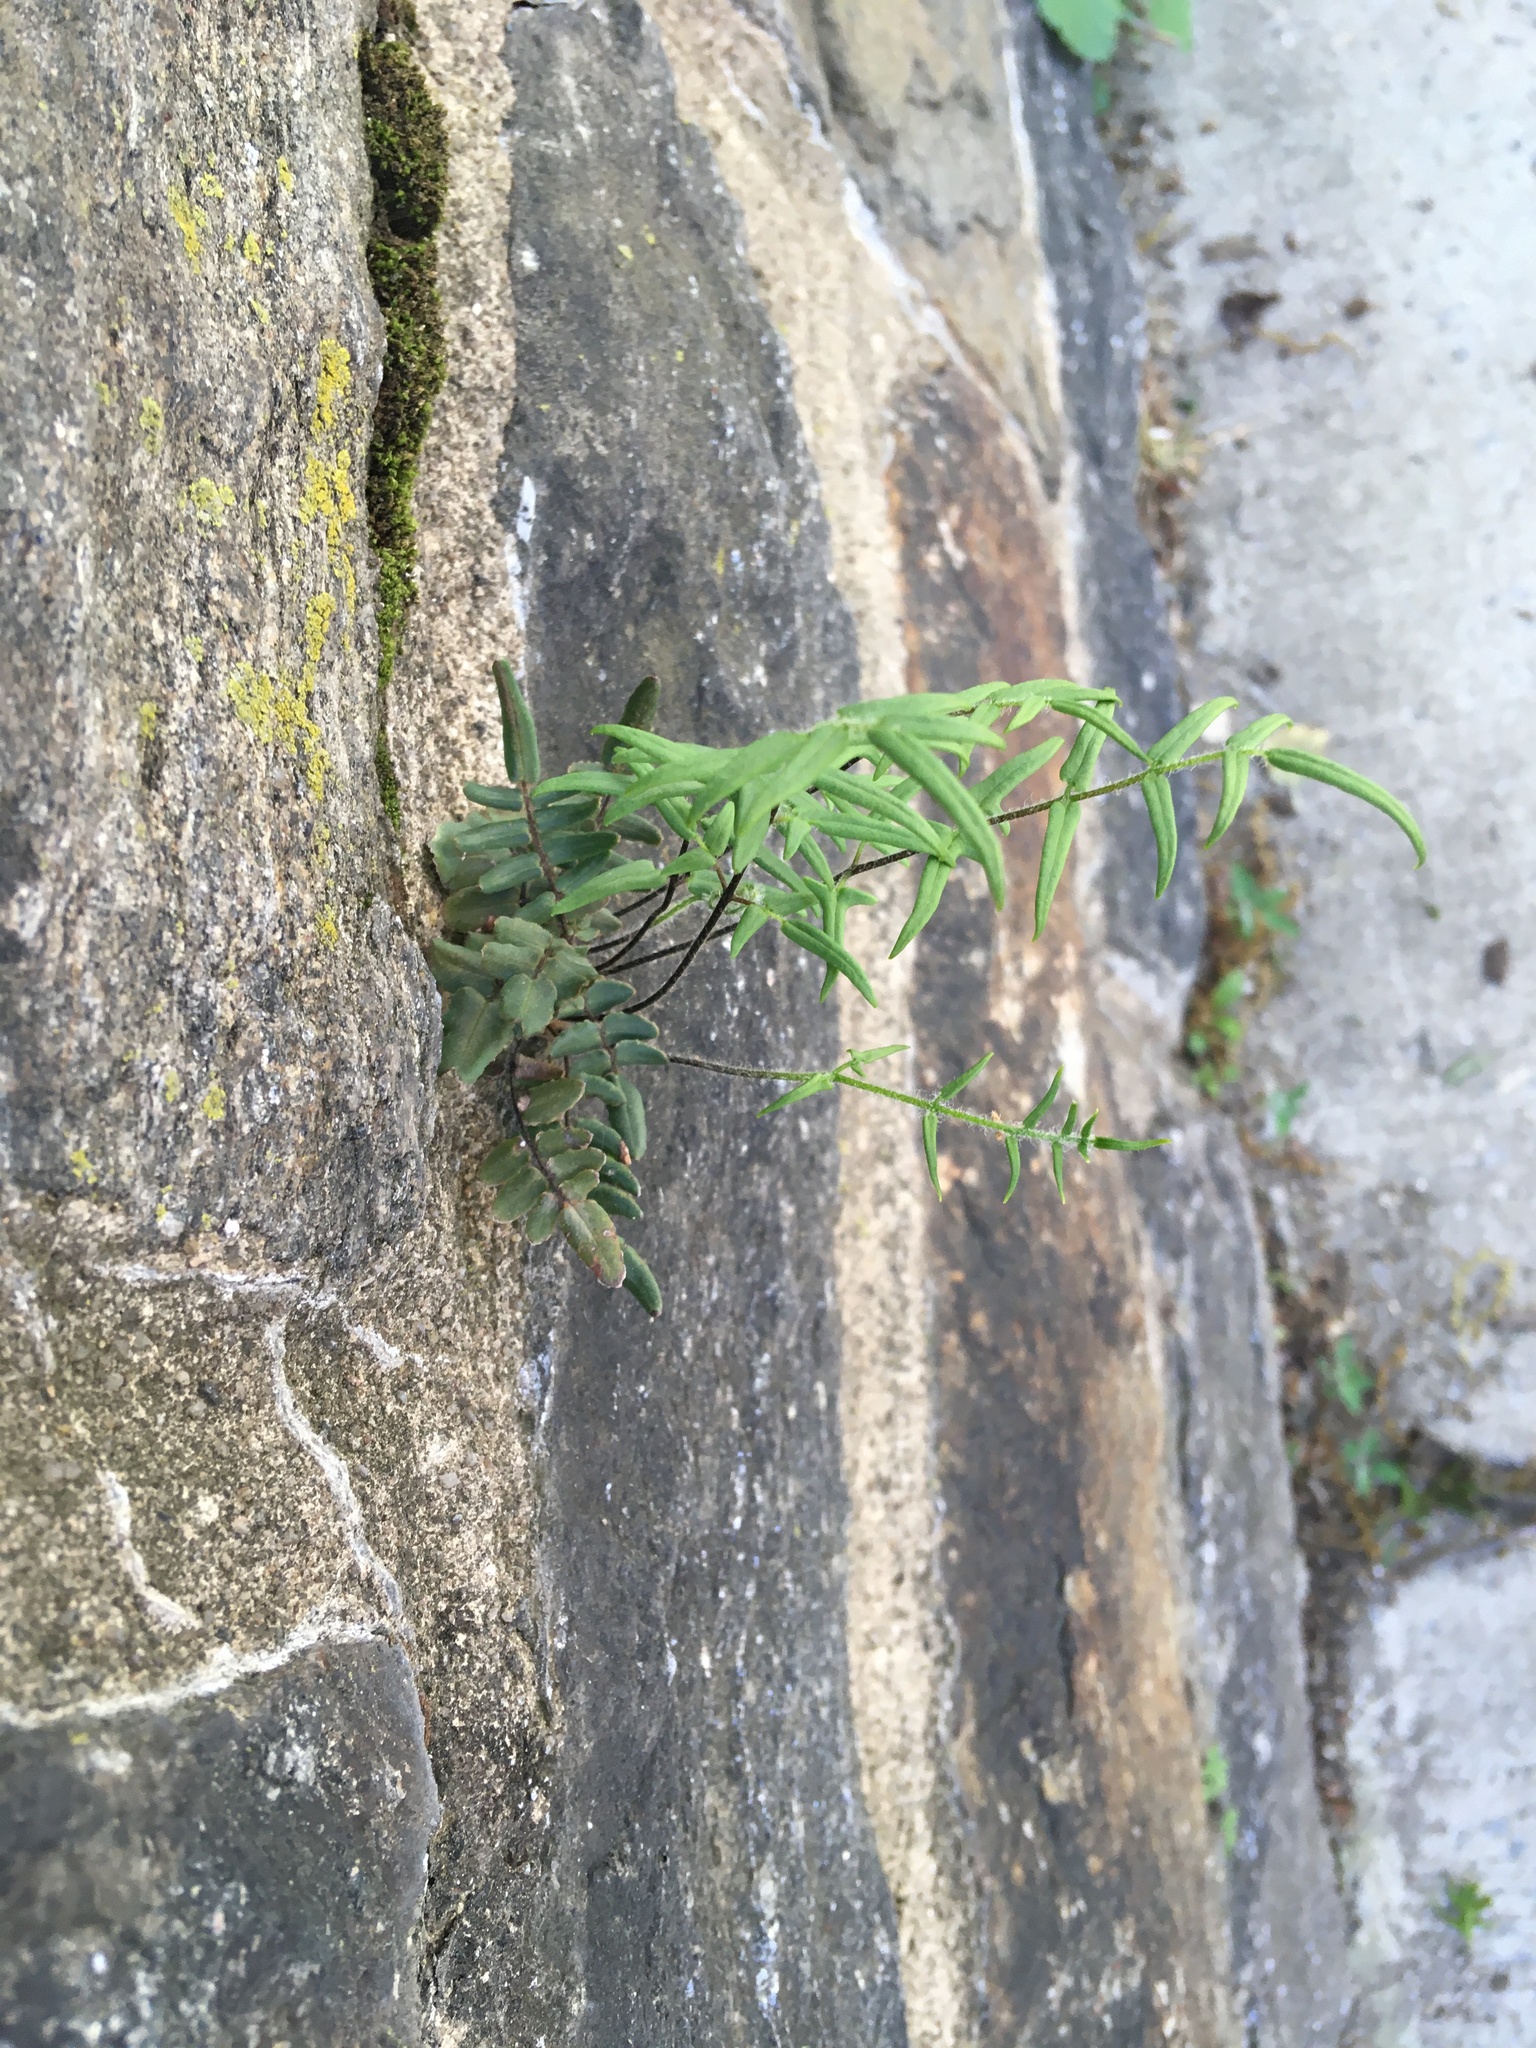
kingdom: Plantae
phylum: Tracheophyta
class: Polypodiopsida
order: Polypodiales
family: Pteridaceae
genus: Pellaea
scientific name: Pellaea atropurpurea
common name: Hairy cliffbrake
